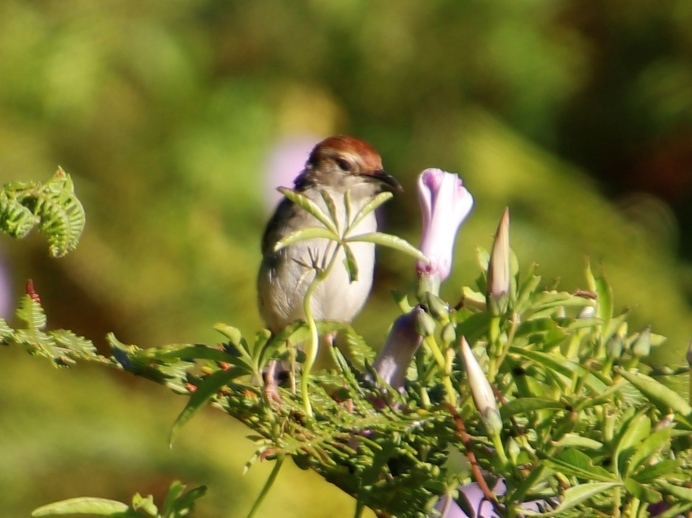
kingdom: Animalia
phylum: Chordata
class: Aves
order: Passeriformes
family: Cisticolidae
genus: Cisticola
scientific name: Cisticola tinniens
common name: Levaillant's cisticola
